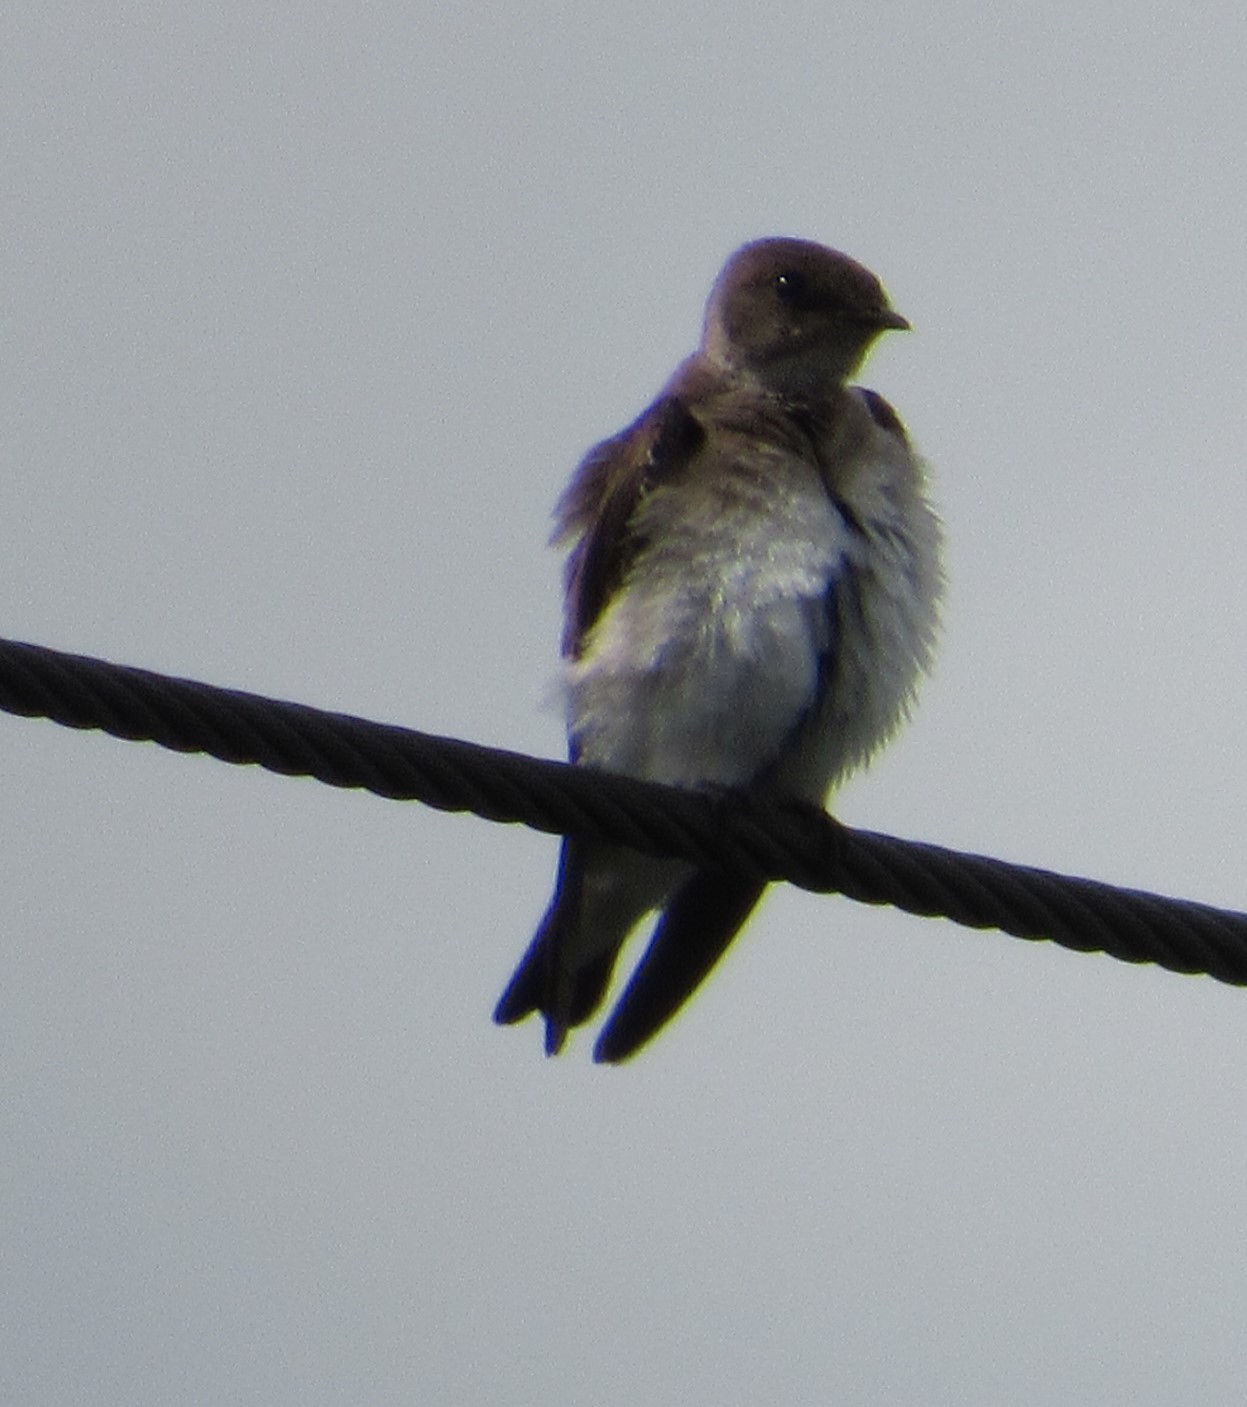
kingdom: Animalia
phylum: Chordata
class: Aves
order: Passeriformes
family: Hirundinidae
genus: Stelgidopteryx
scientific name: Stelgidopteryx serripennis
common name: Northern rough-winged swallow
